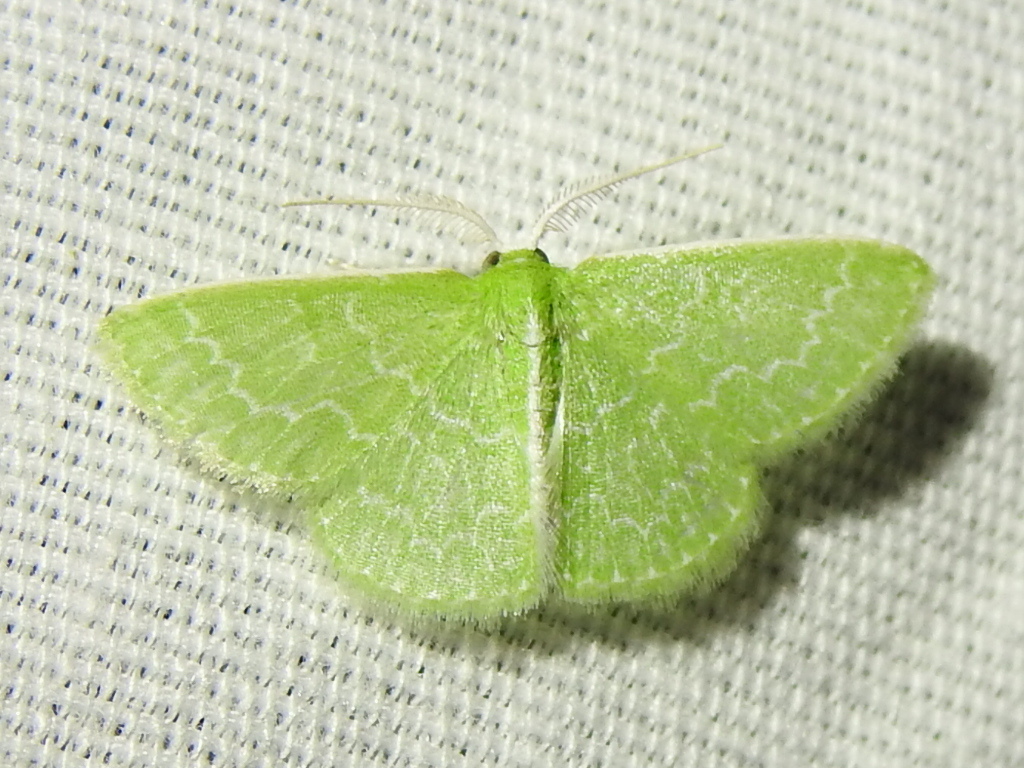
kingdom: Animalia
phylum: Arthropoda
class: Insecta
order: Lepidoptera
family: Geometridae
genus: Synchlora
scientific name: Synchlora frondaria
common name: Southern emerald
